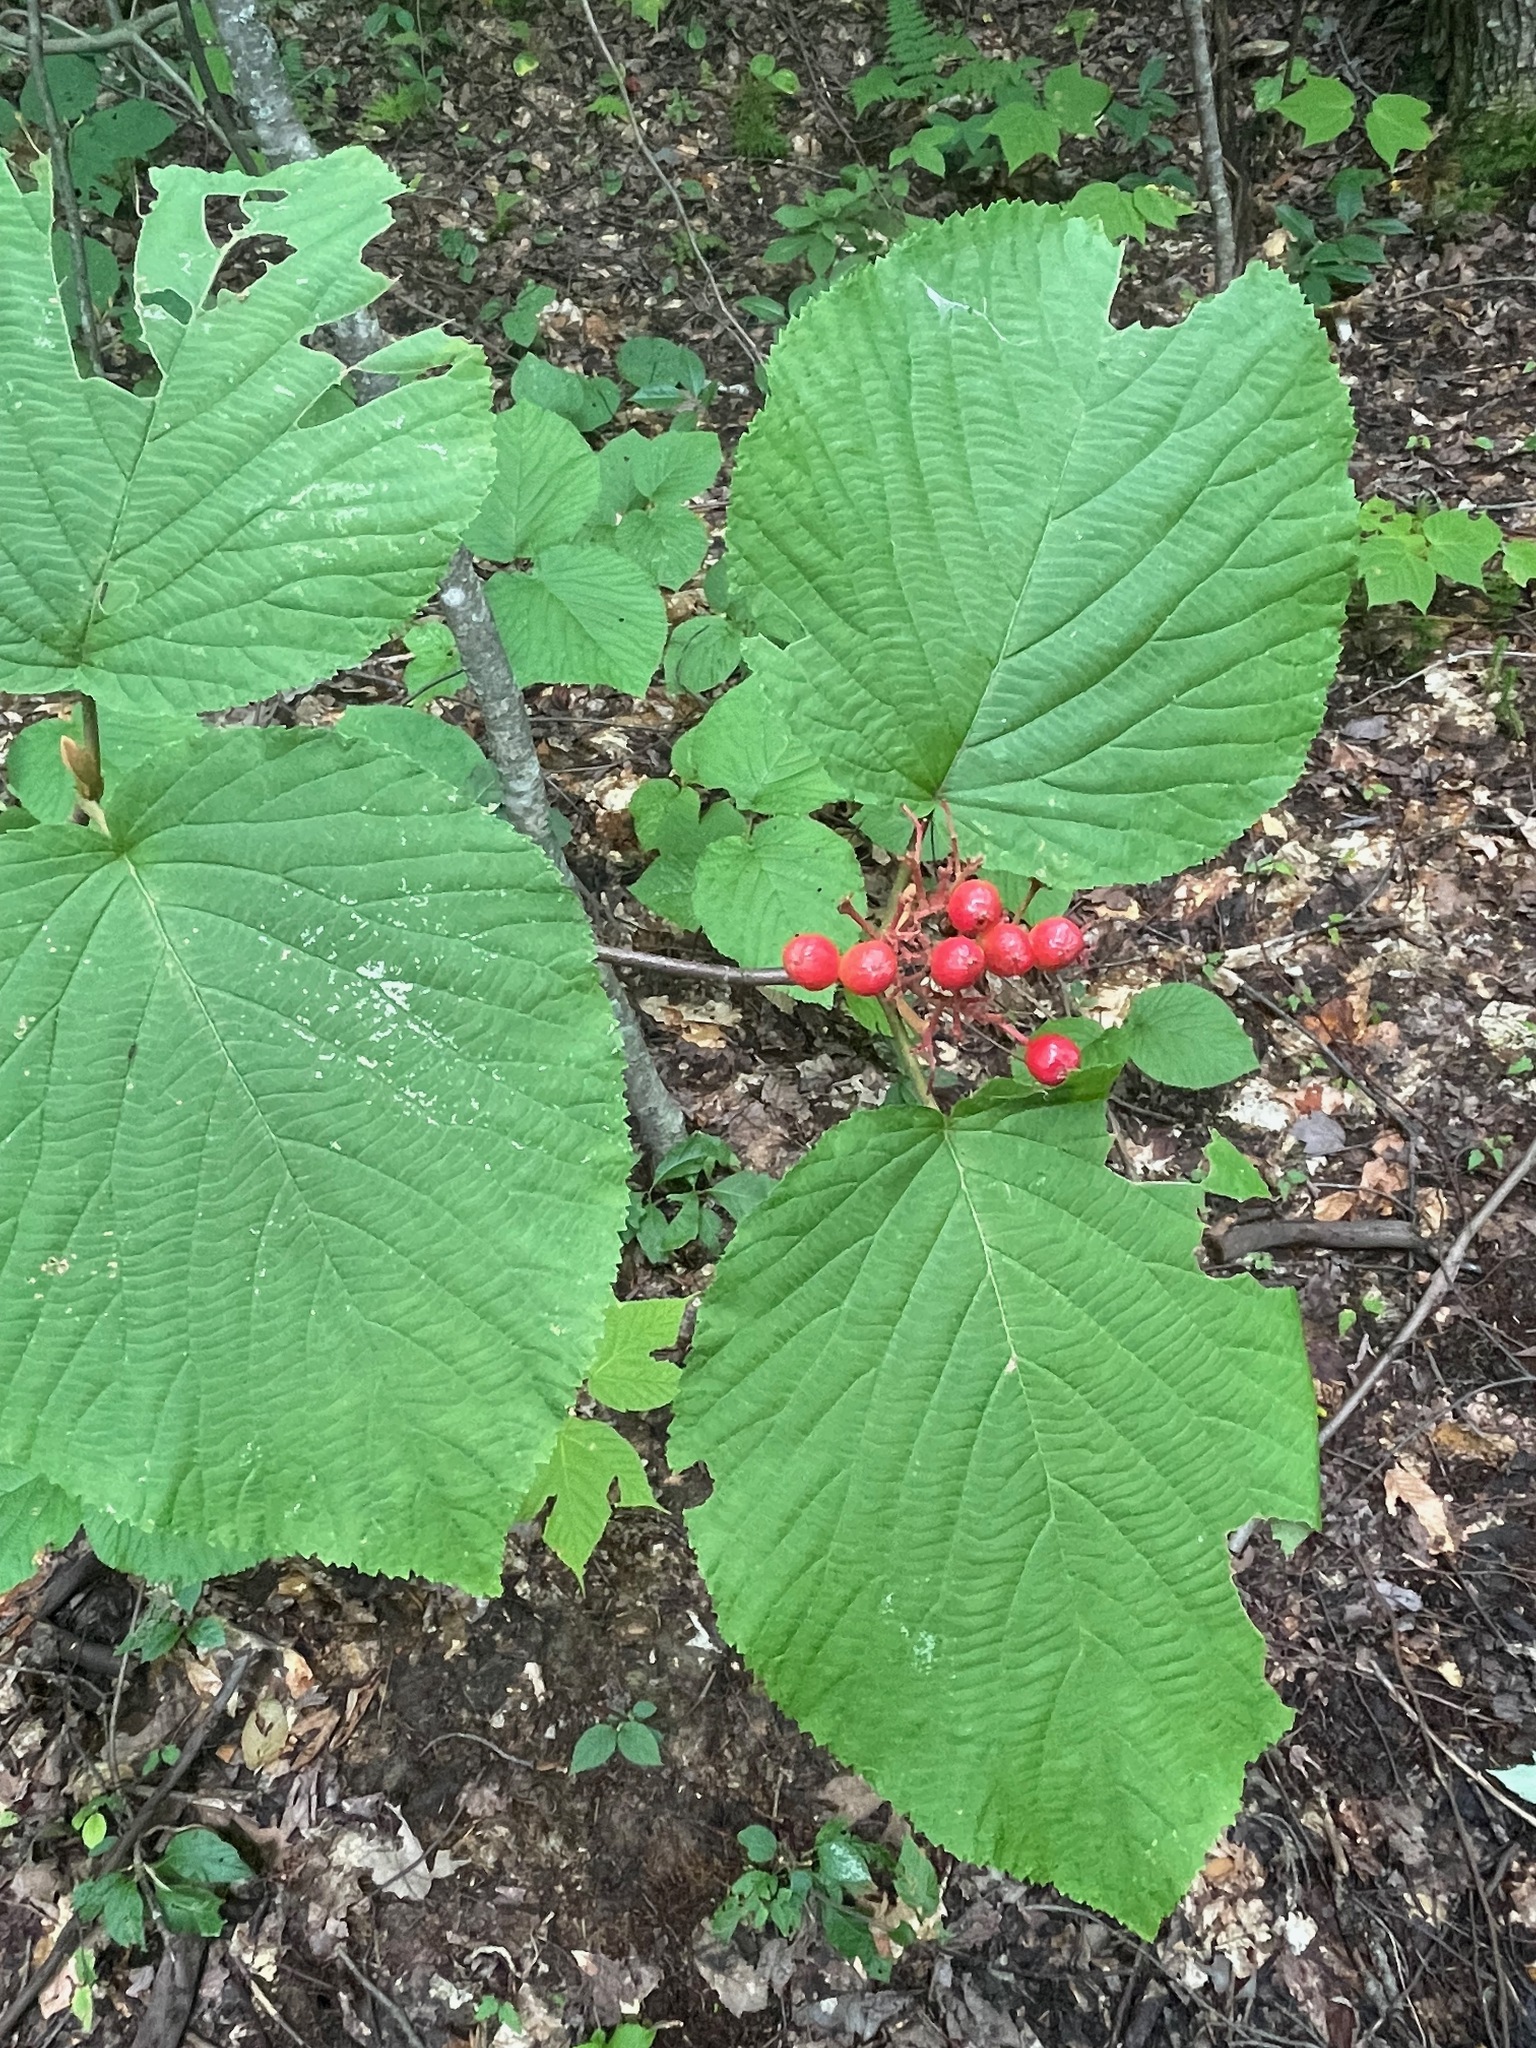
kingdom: Plantae
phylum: Tracheophyta
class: Magnoliopsida
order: Dipsacales
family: Viburnaceae
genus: Viburnum
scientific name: Viburnum lantanoides
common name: Hobblebush
